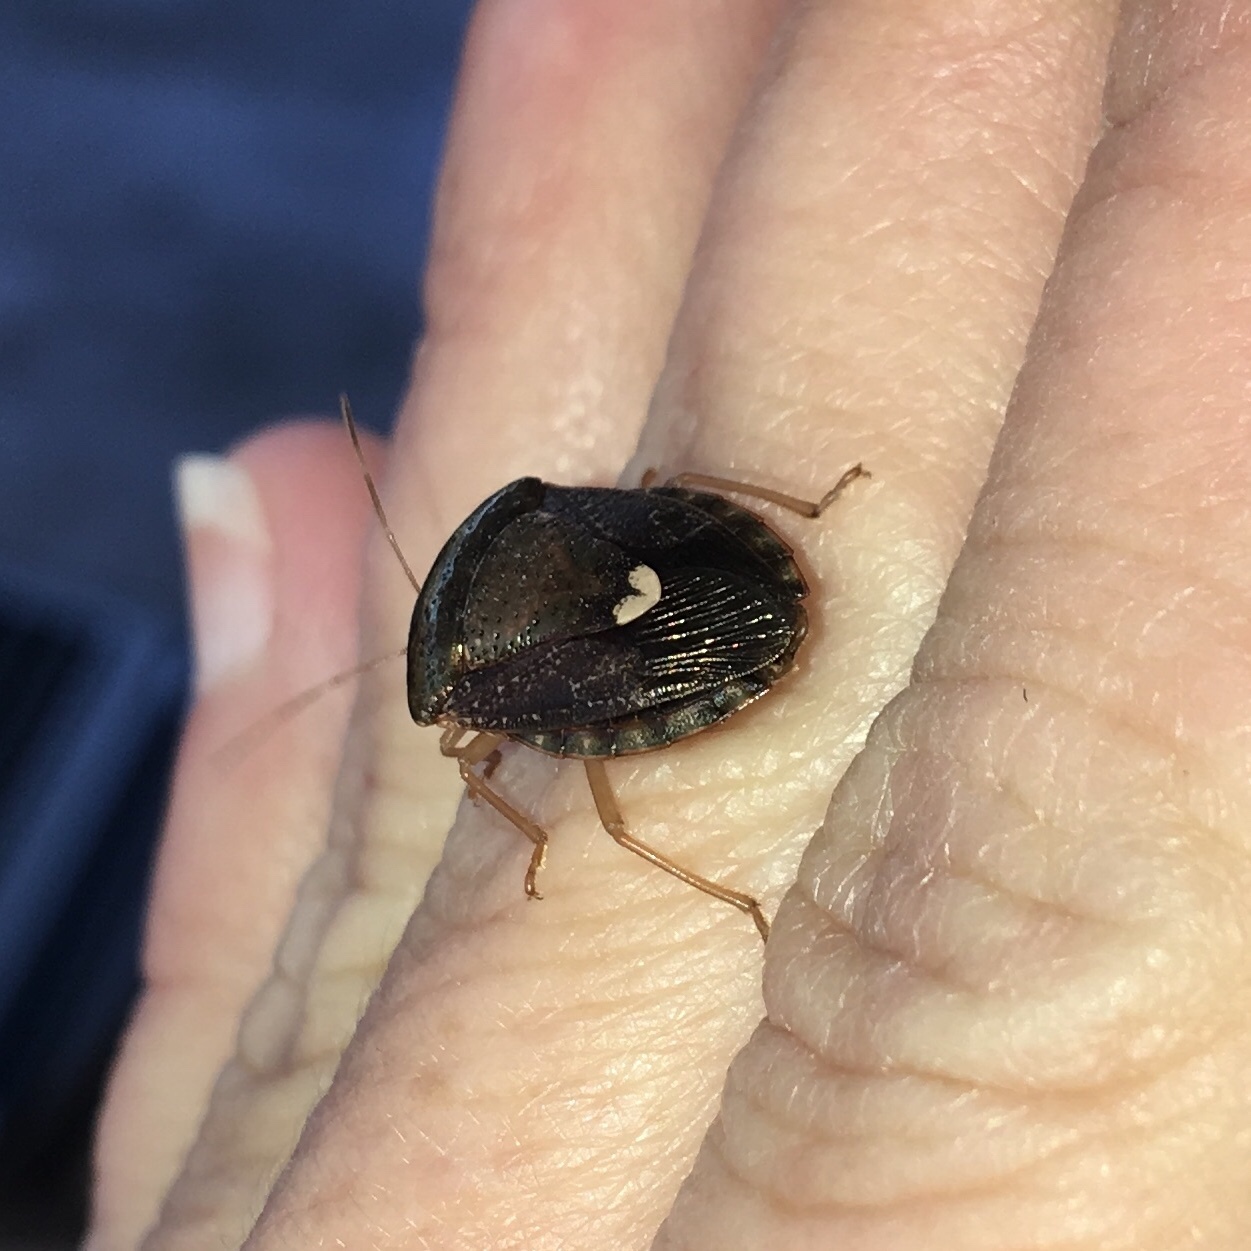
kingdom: Animalia
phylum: Arthropoda
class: Insecta
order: Hemiptera
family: Pentatomidae
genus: Edessa
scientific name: Edessa bifida
